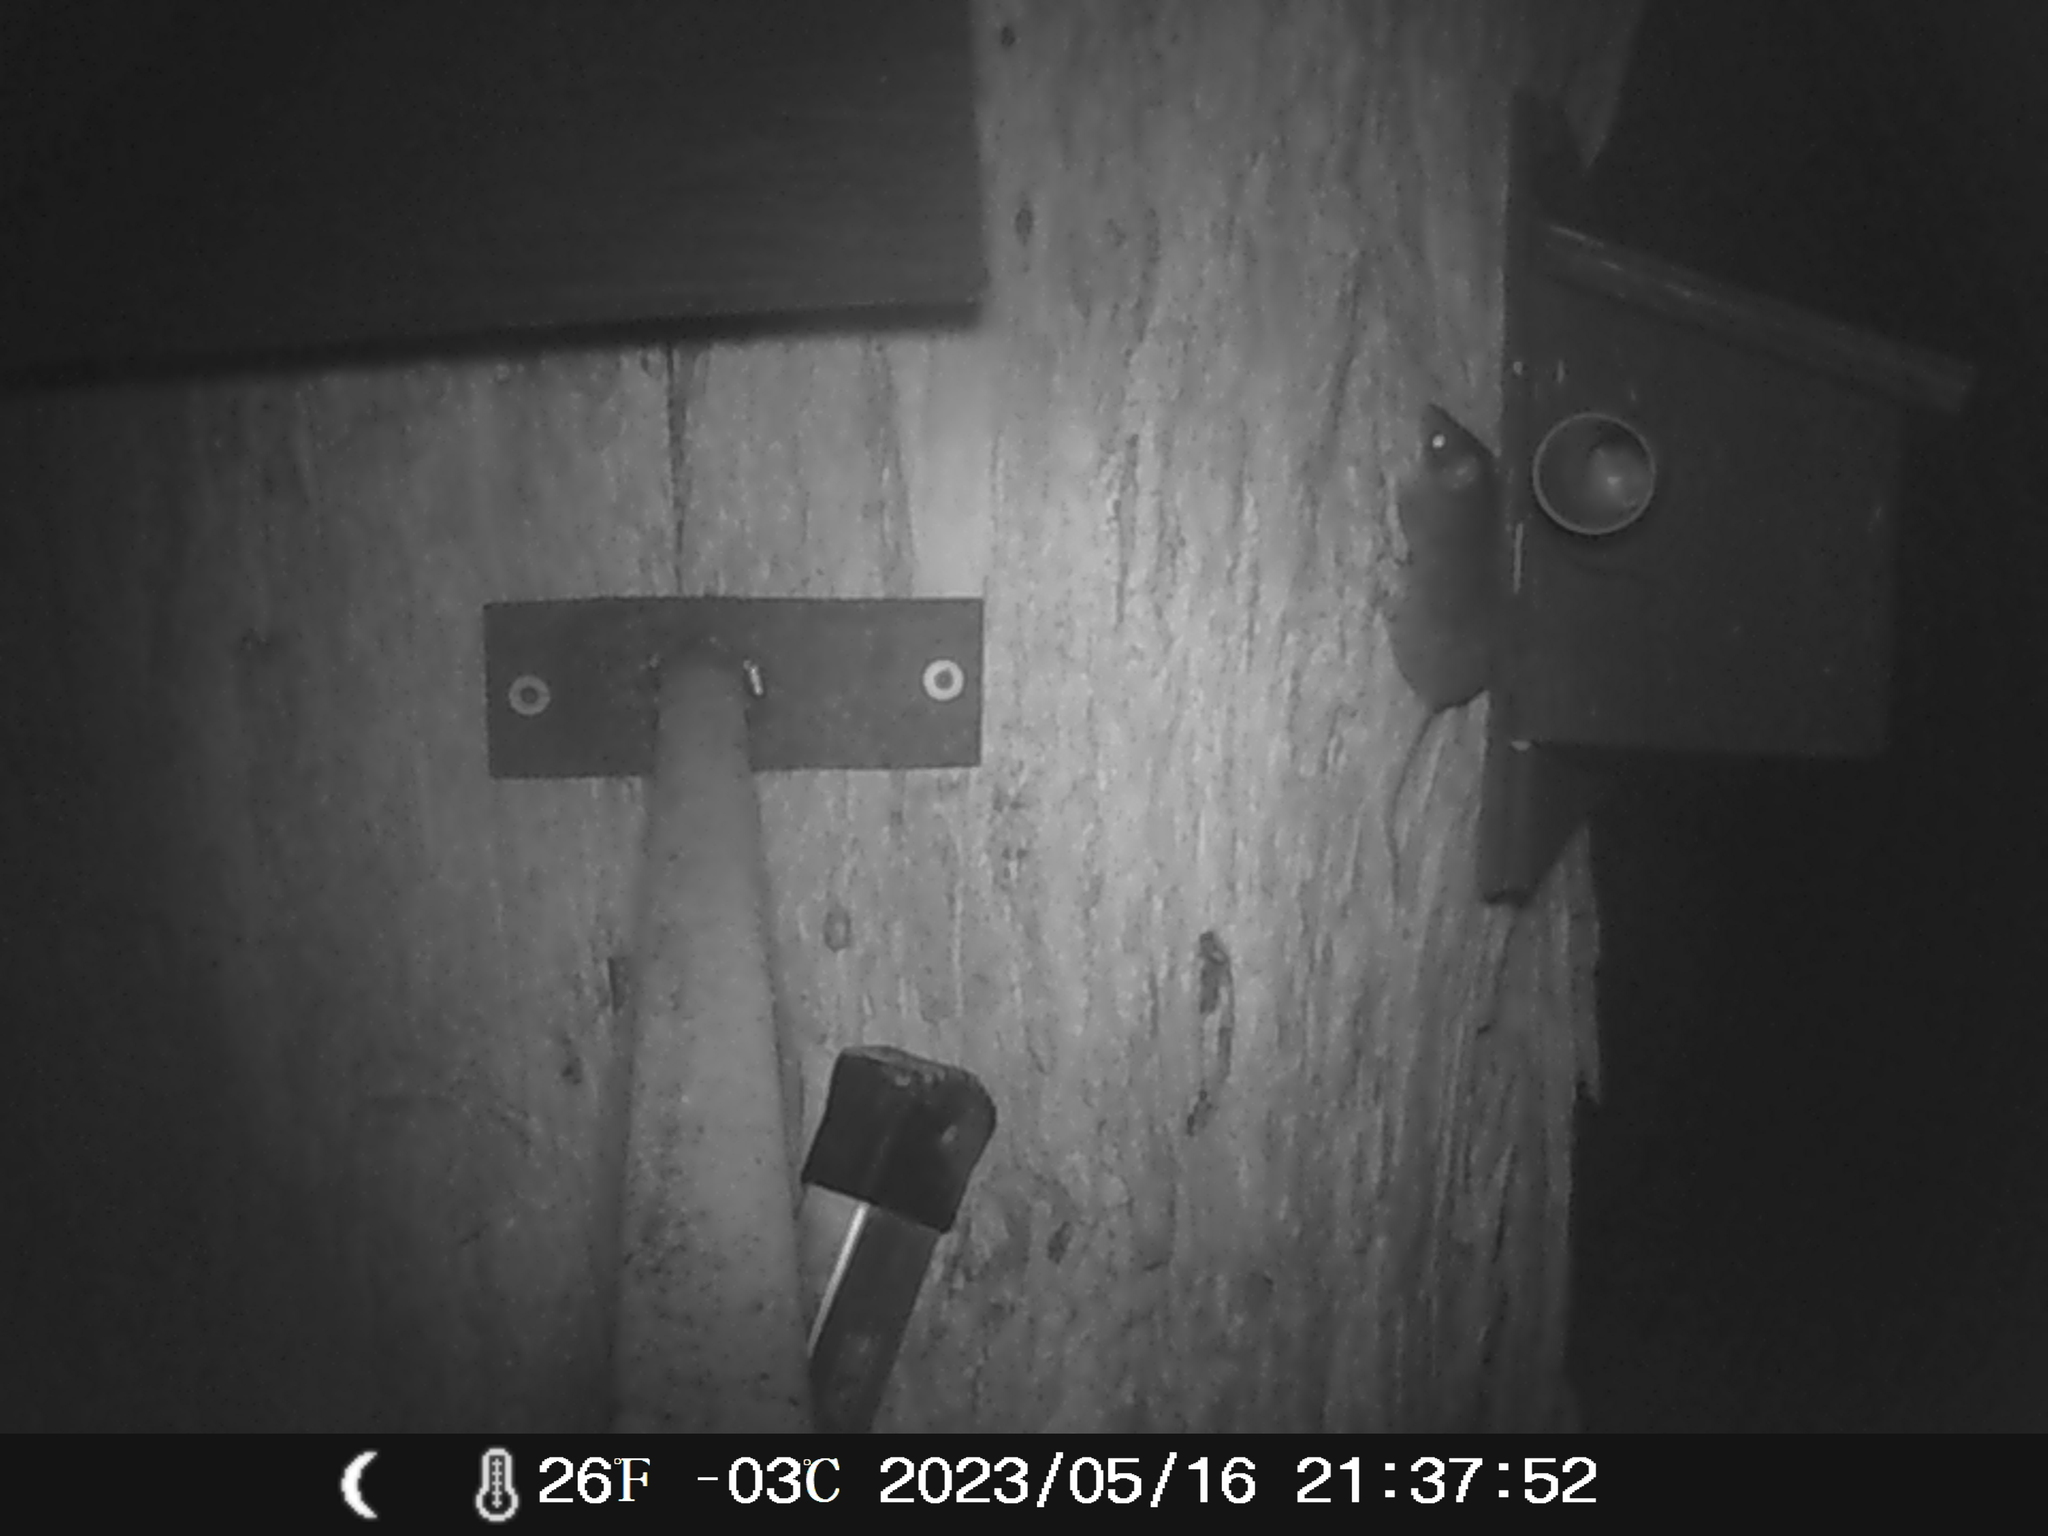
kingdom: Animalia
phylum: Chordata
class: Mammalia
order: Dasyuromorphia
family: Dasyuridae
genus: Antechinus
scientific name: Antechinus agilis
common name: Agile antechinus
